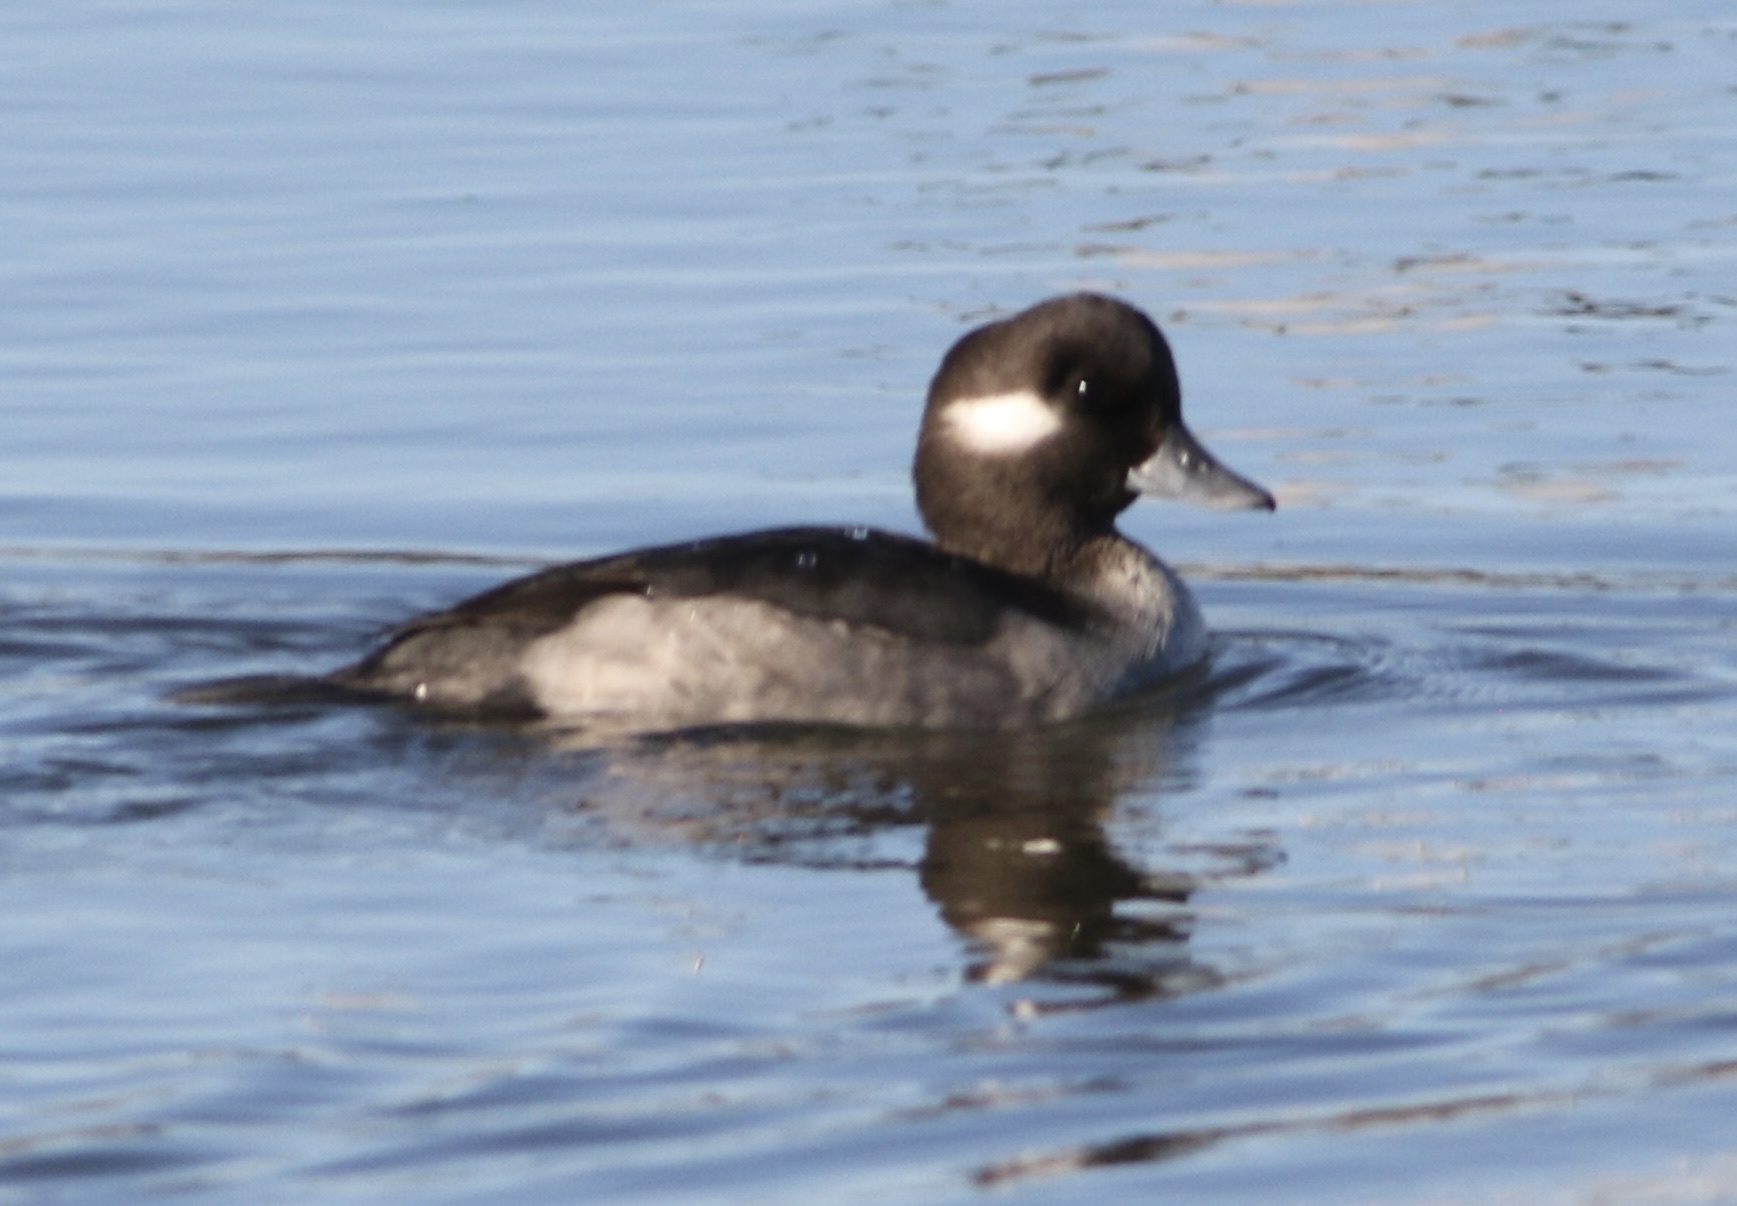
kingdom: Animalia
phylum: Chordata
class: Aves
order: Anseriformes
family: Anatidae
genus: Bucephala
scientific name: Bucephala albeola
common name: Bufflehead
